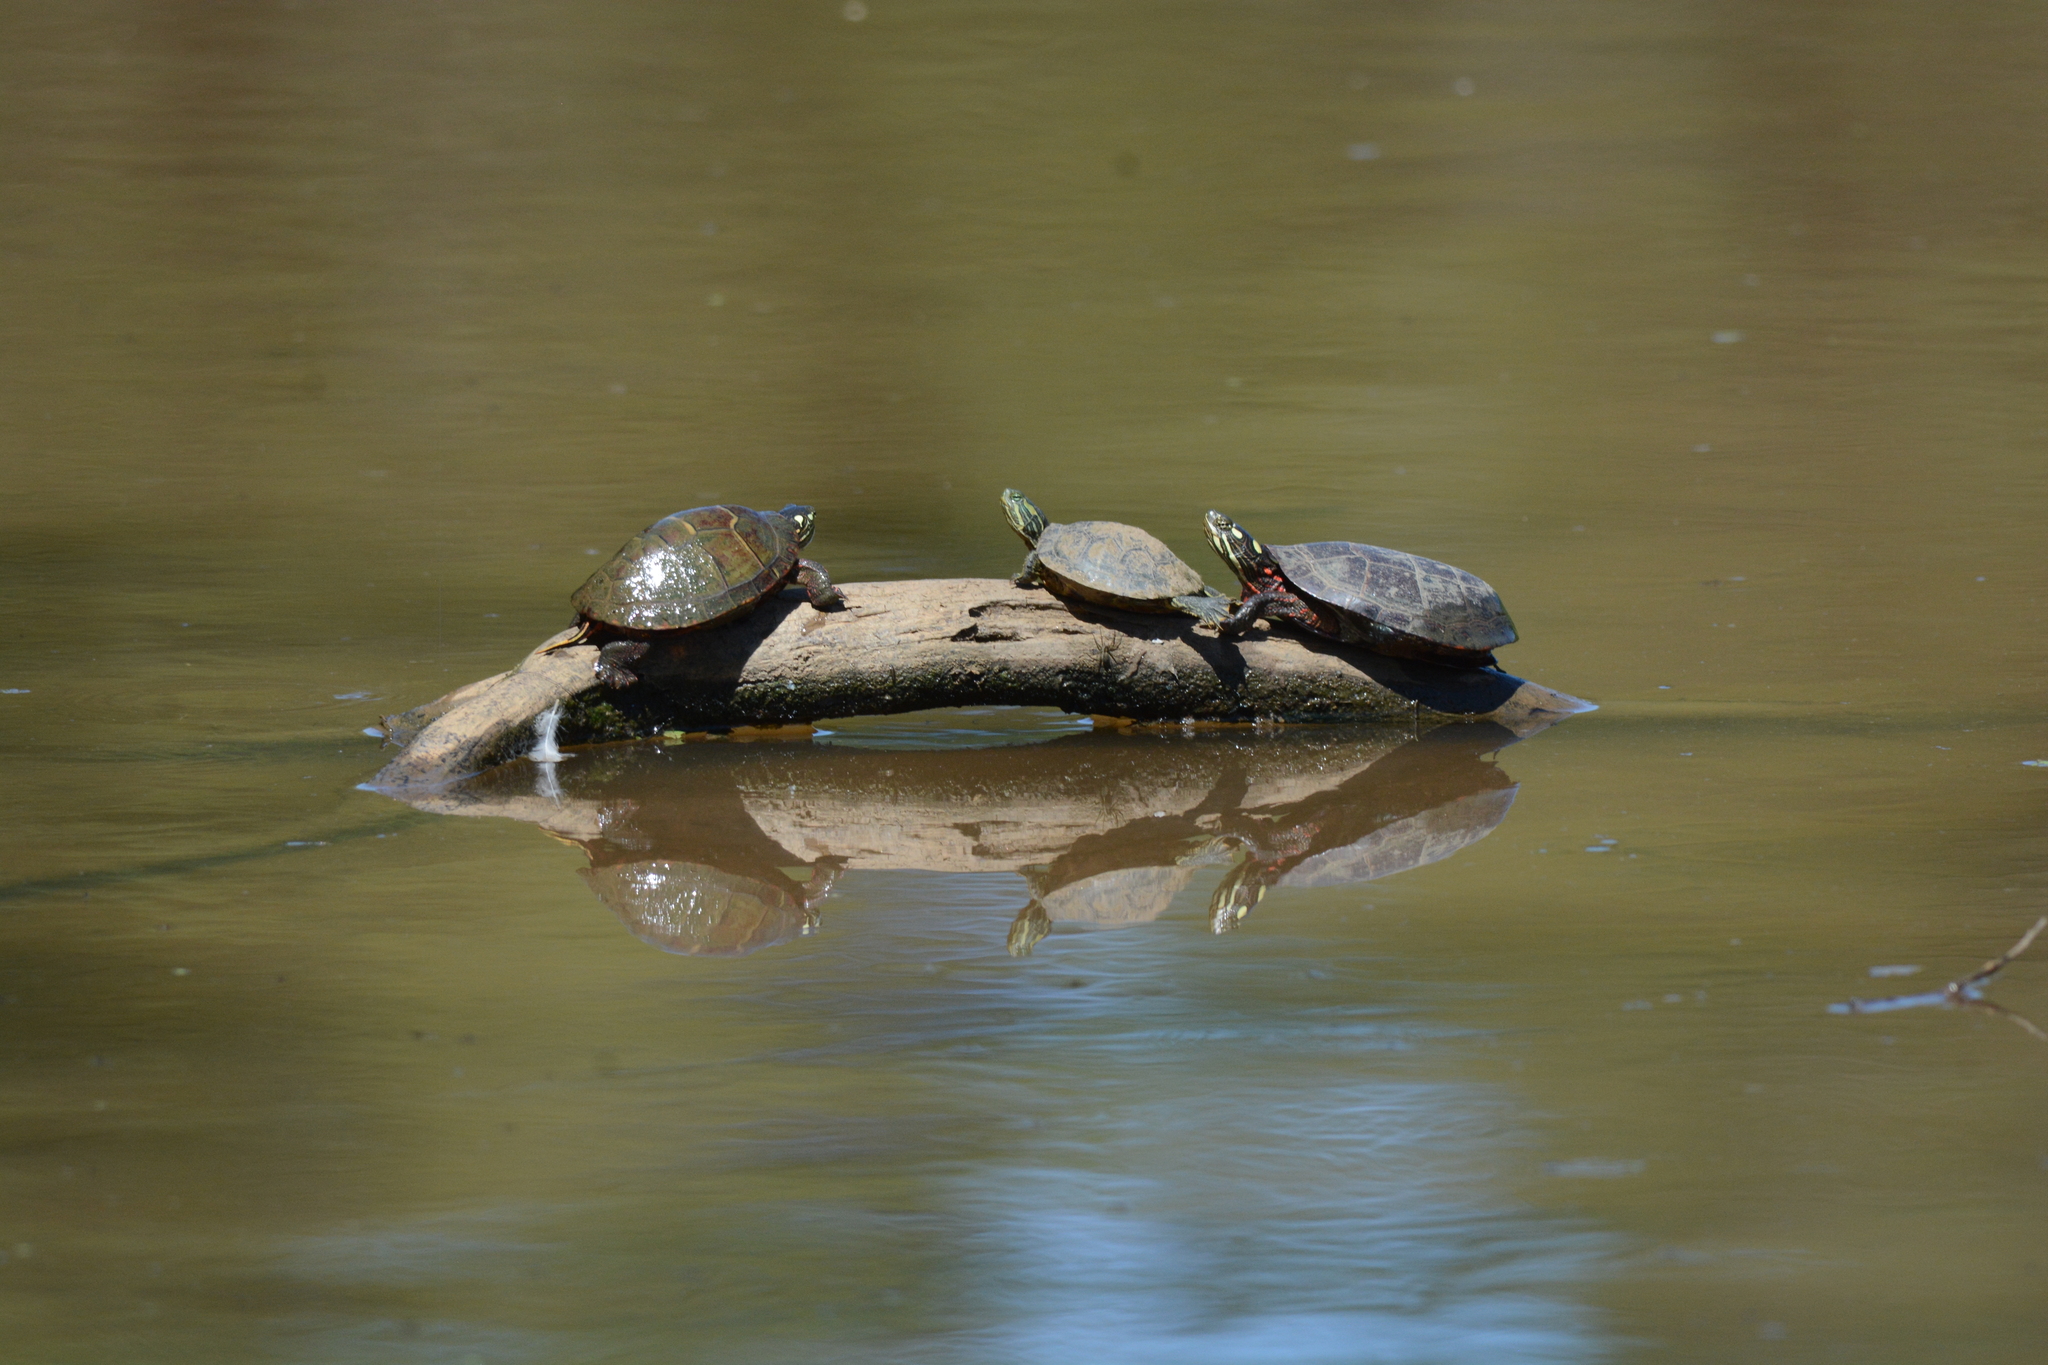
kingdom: Animalia
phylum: Chordata
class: Testudines
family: Emydidae
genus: Trachemys
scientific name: Trachemys scripta
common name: Slider
